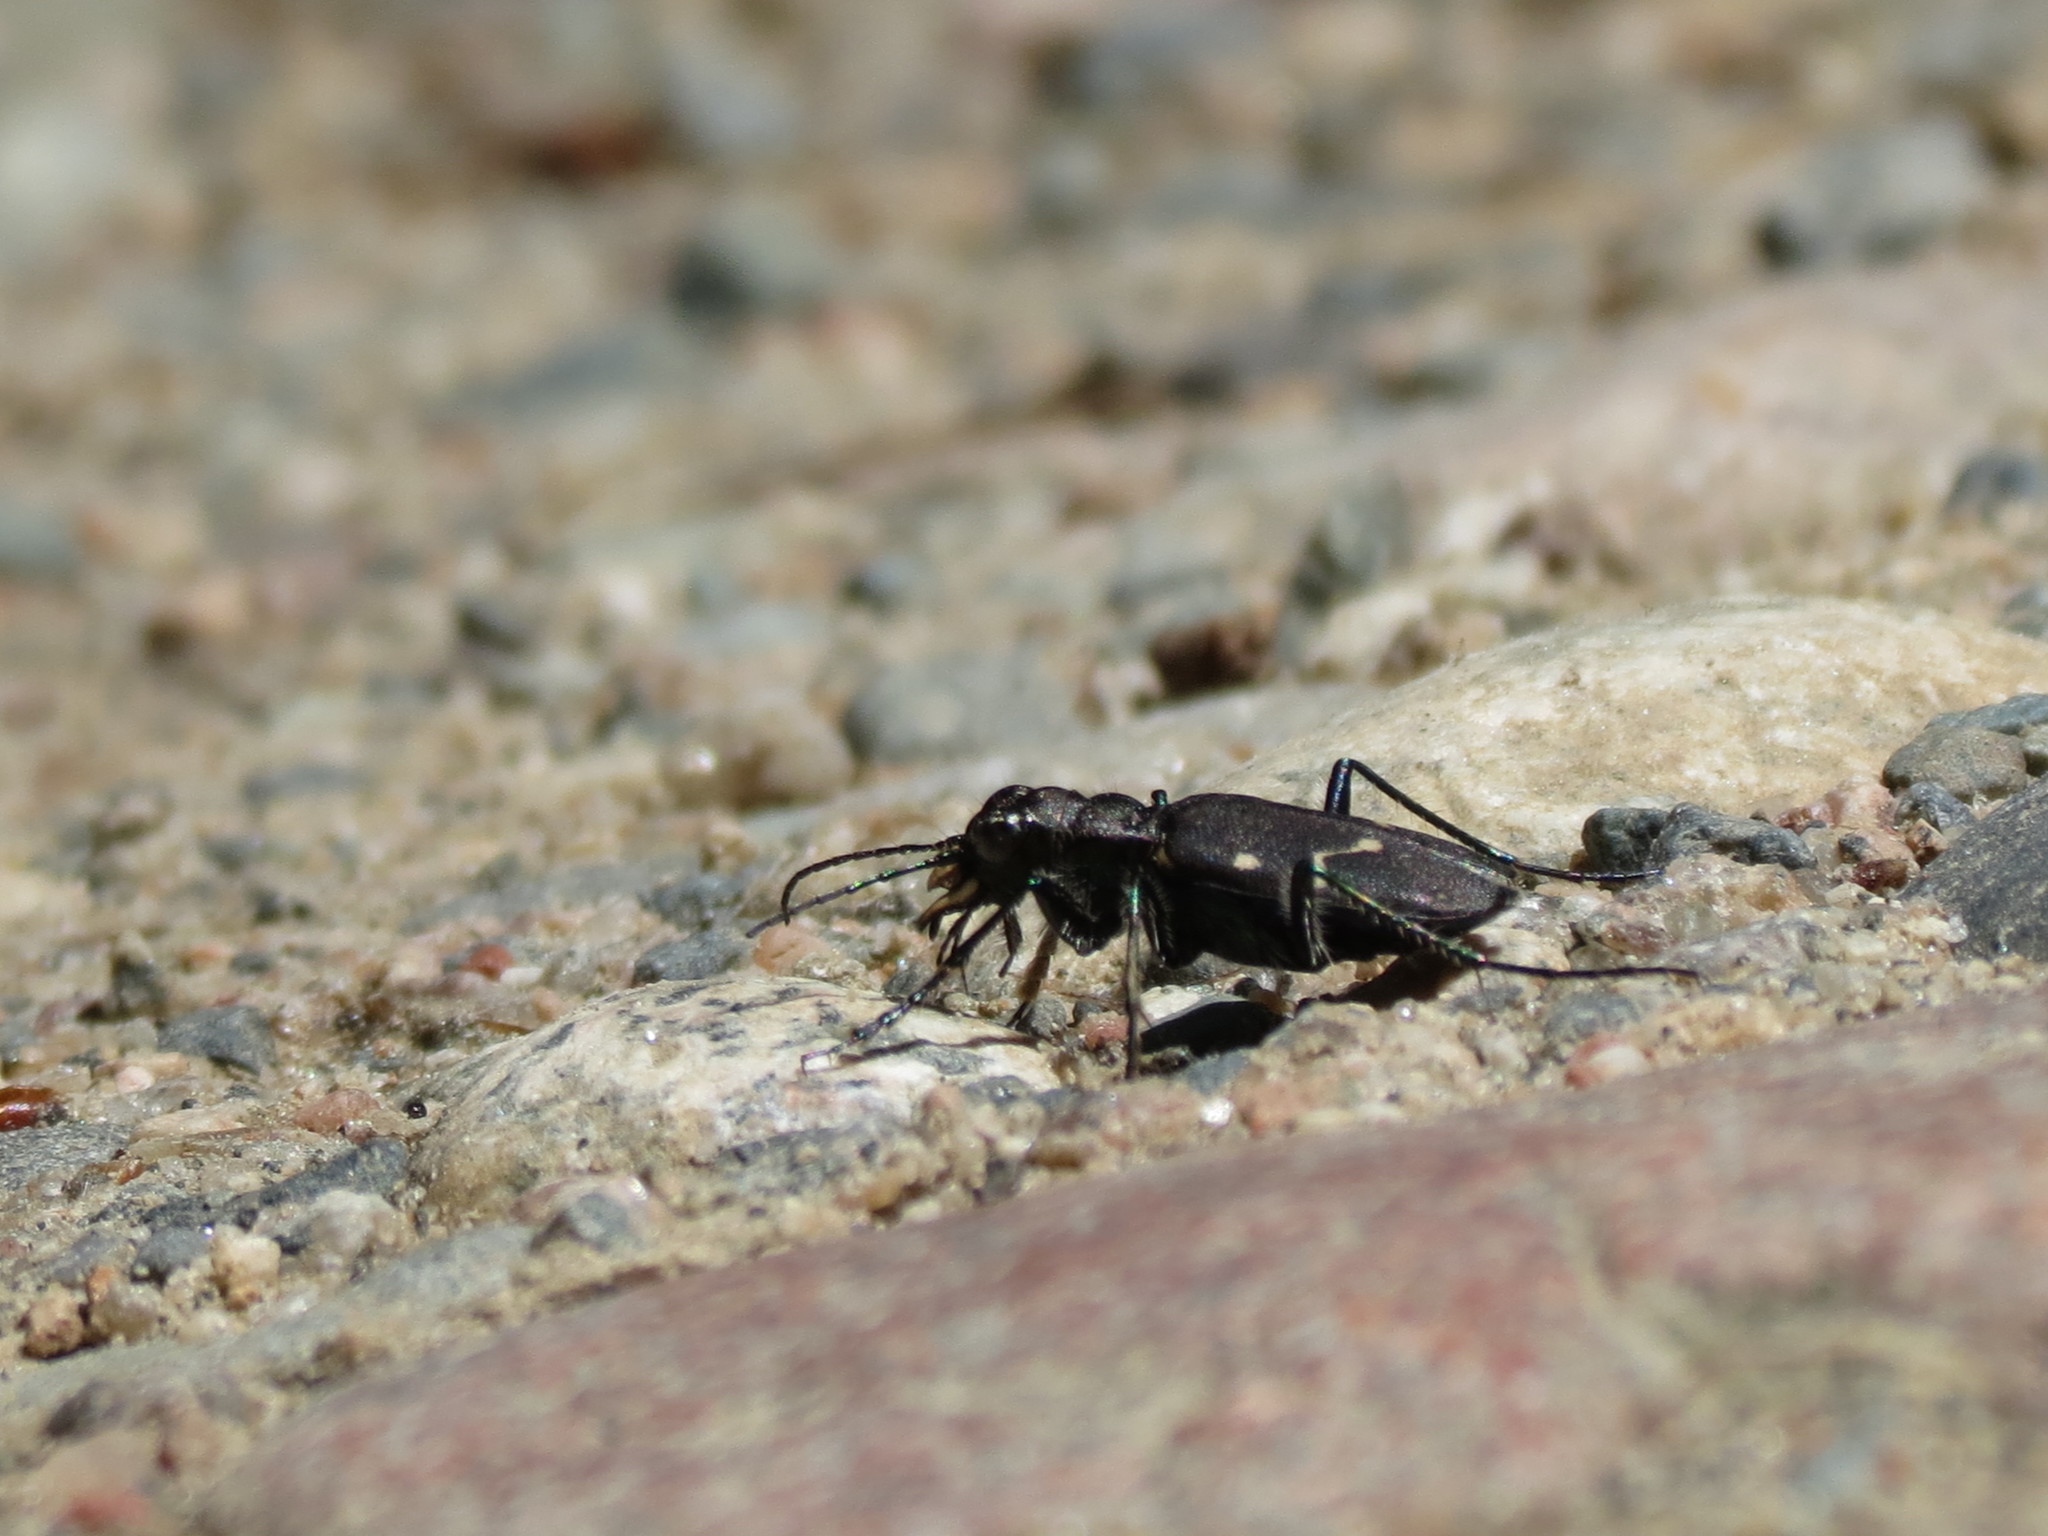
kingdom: Animalia
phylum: Arthropoda
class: Insecta
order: Coleoptera
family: Carabidae
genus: Cicindela
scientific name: Cicindela longilabris
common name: Boreal long-lipped tiger beetle
